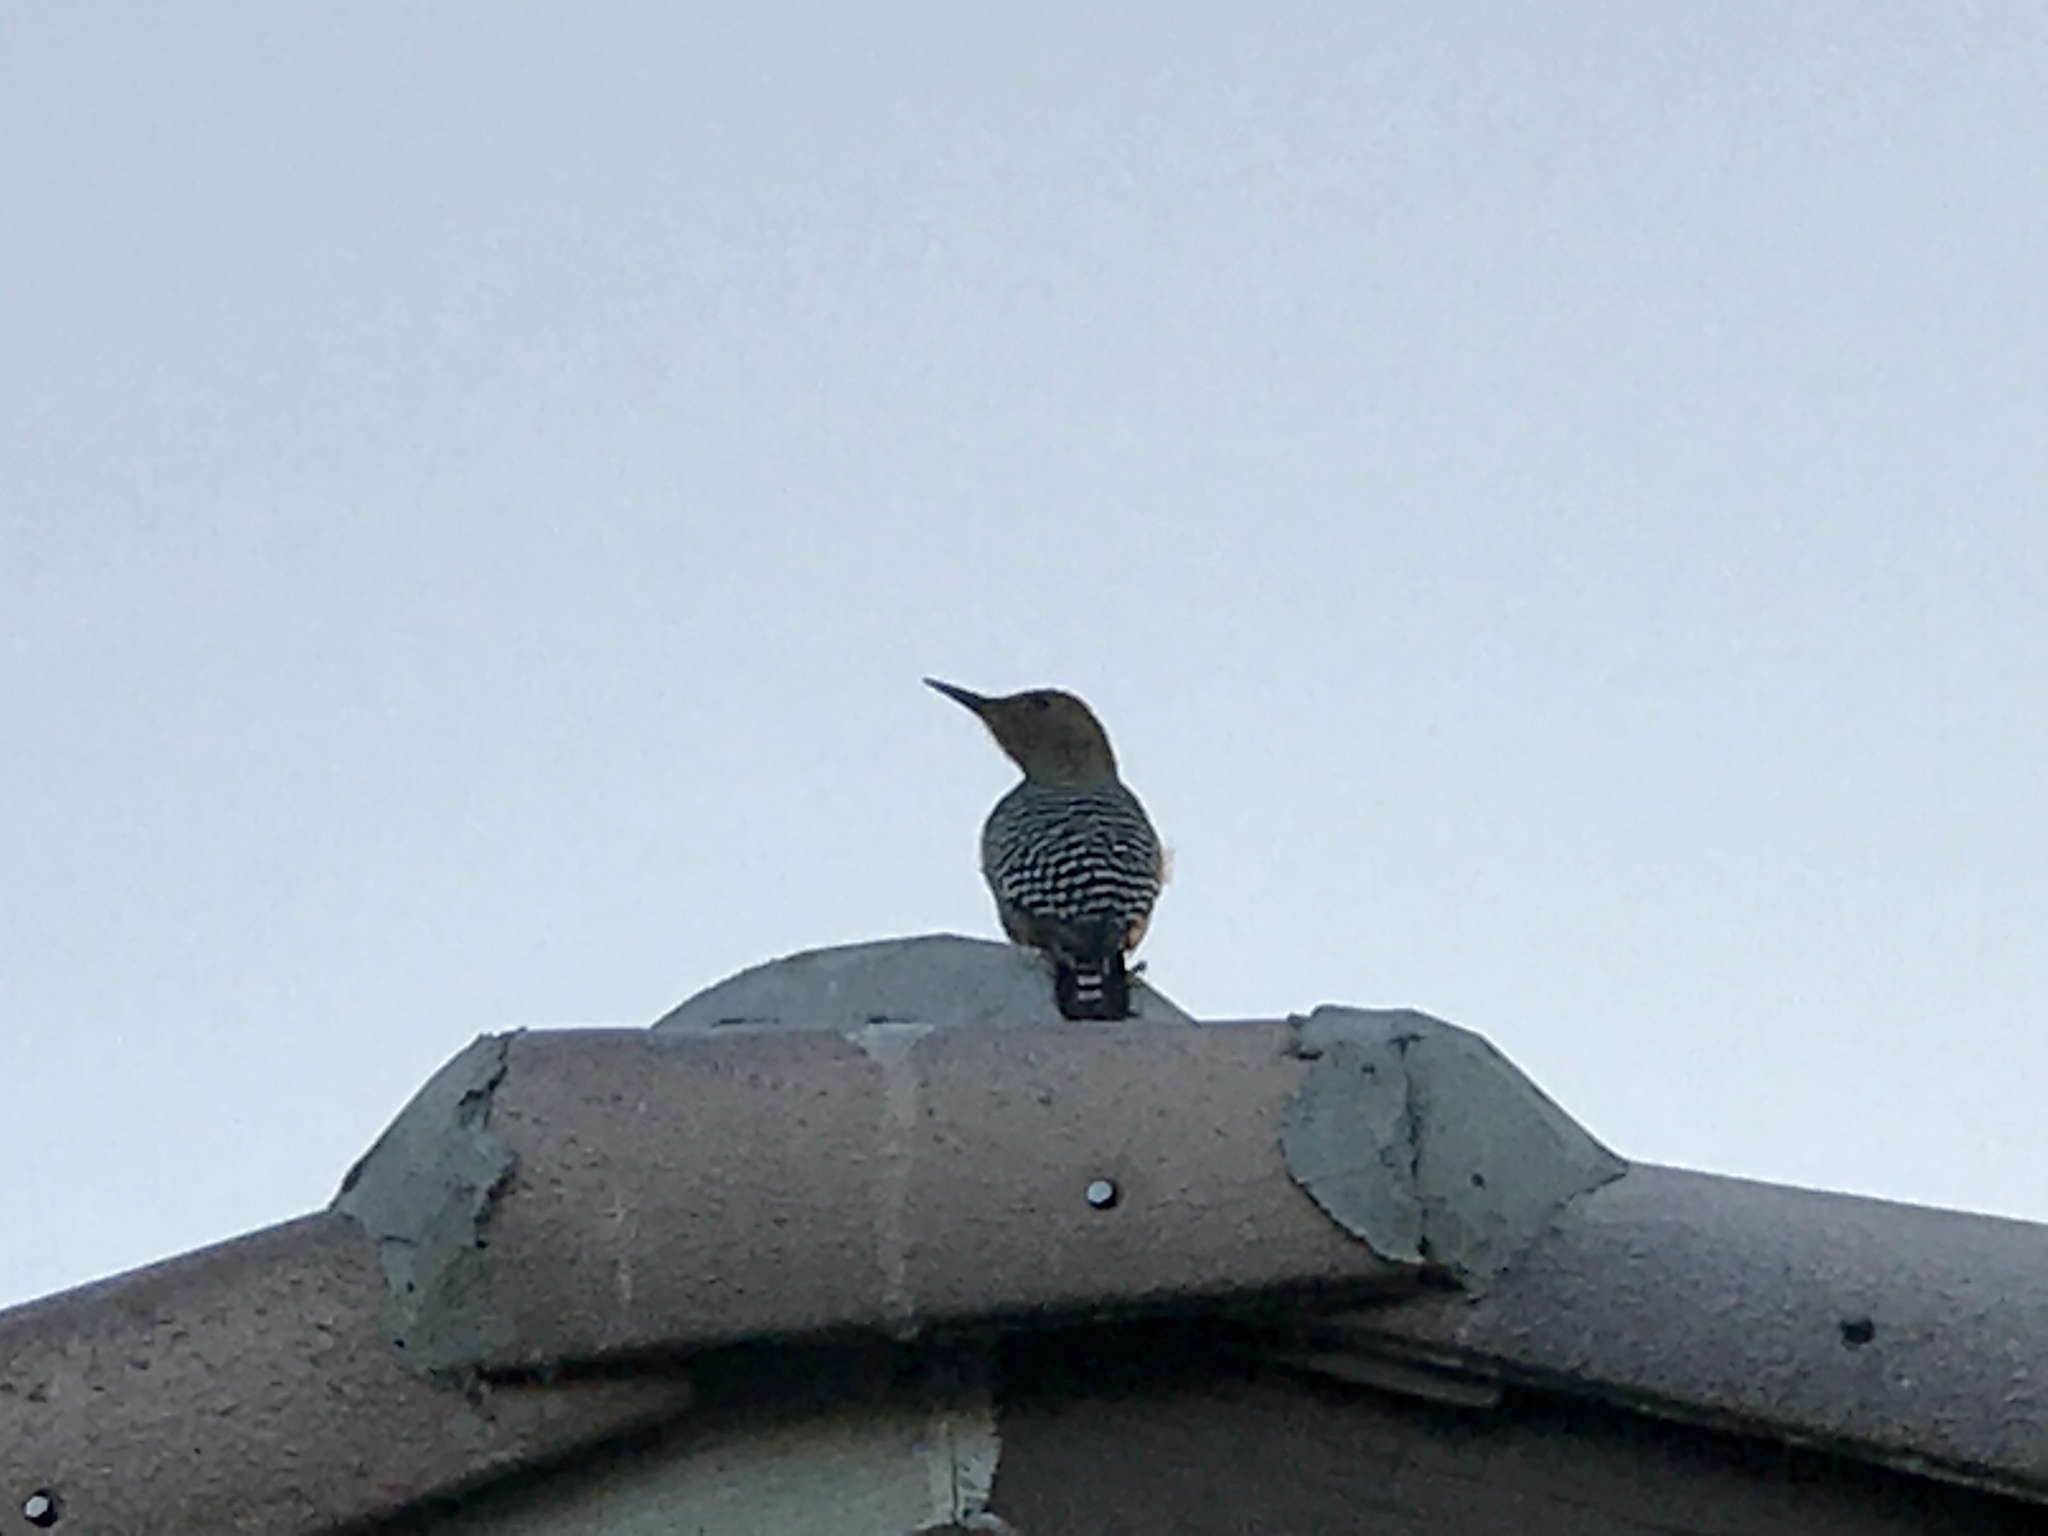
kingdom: Animalia
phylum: Chordata
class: Aves
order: Piciformes
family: Picidae
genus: Melanerpes
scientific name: Melanerpes uropygialis
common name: Gila woodpecker
